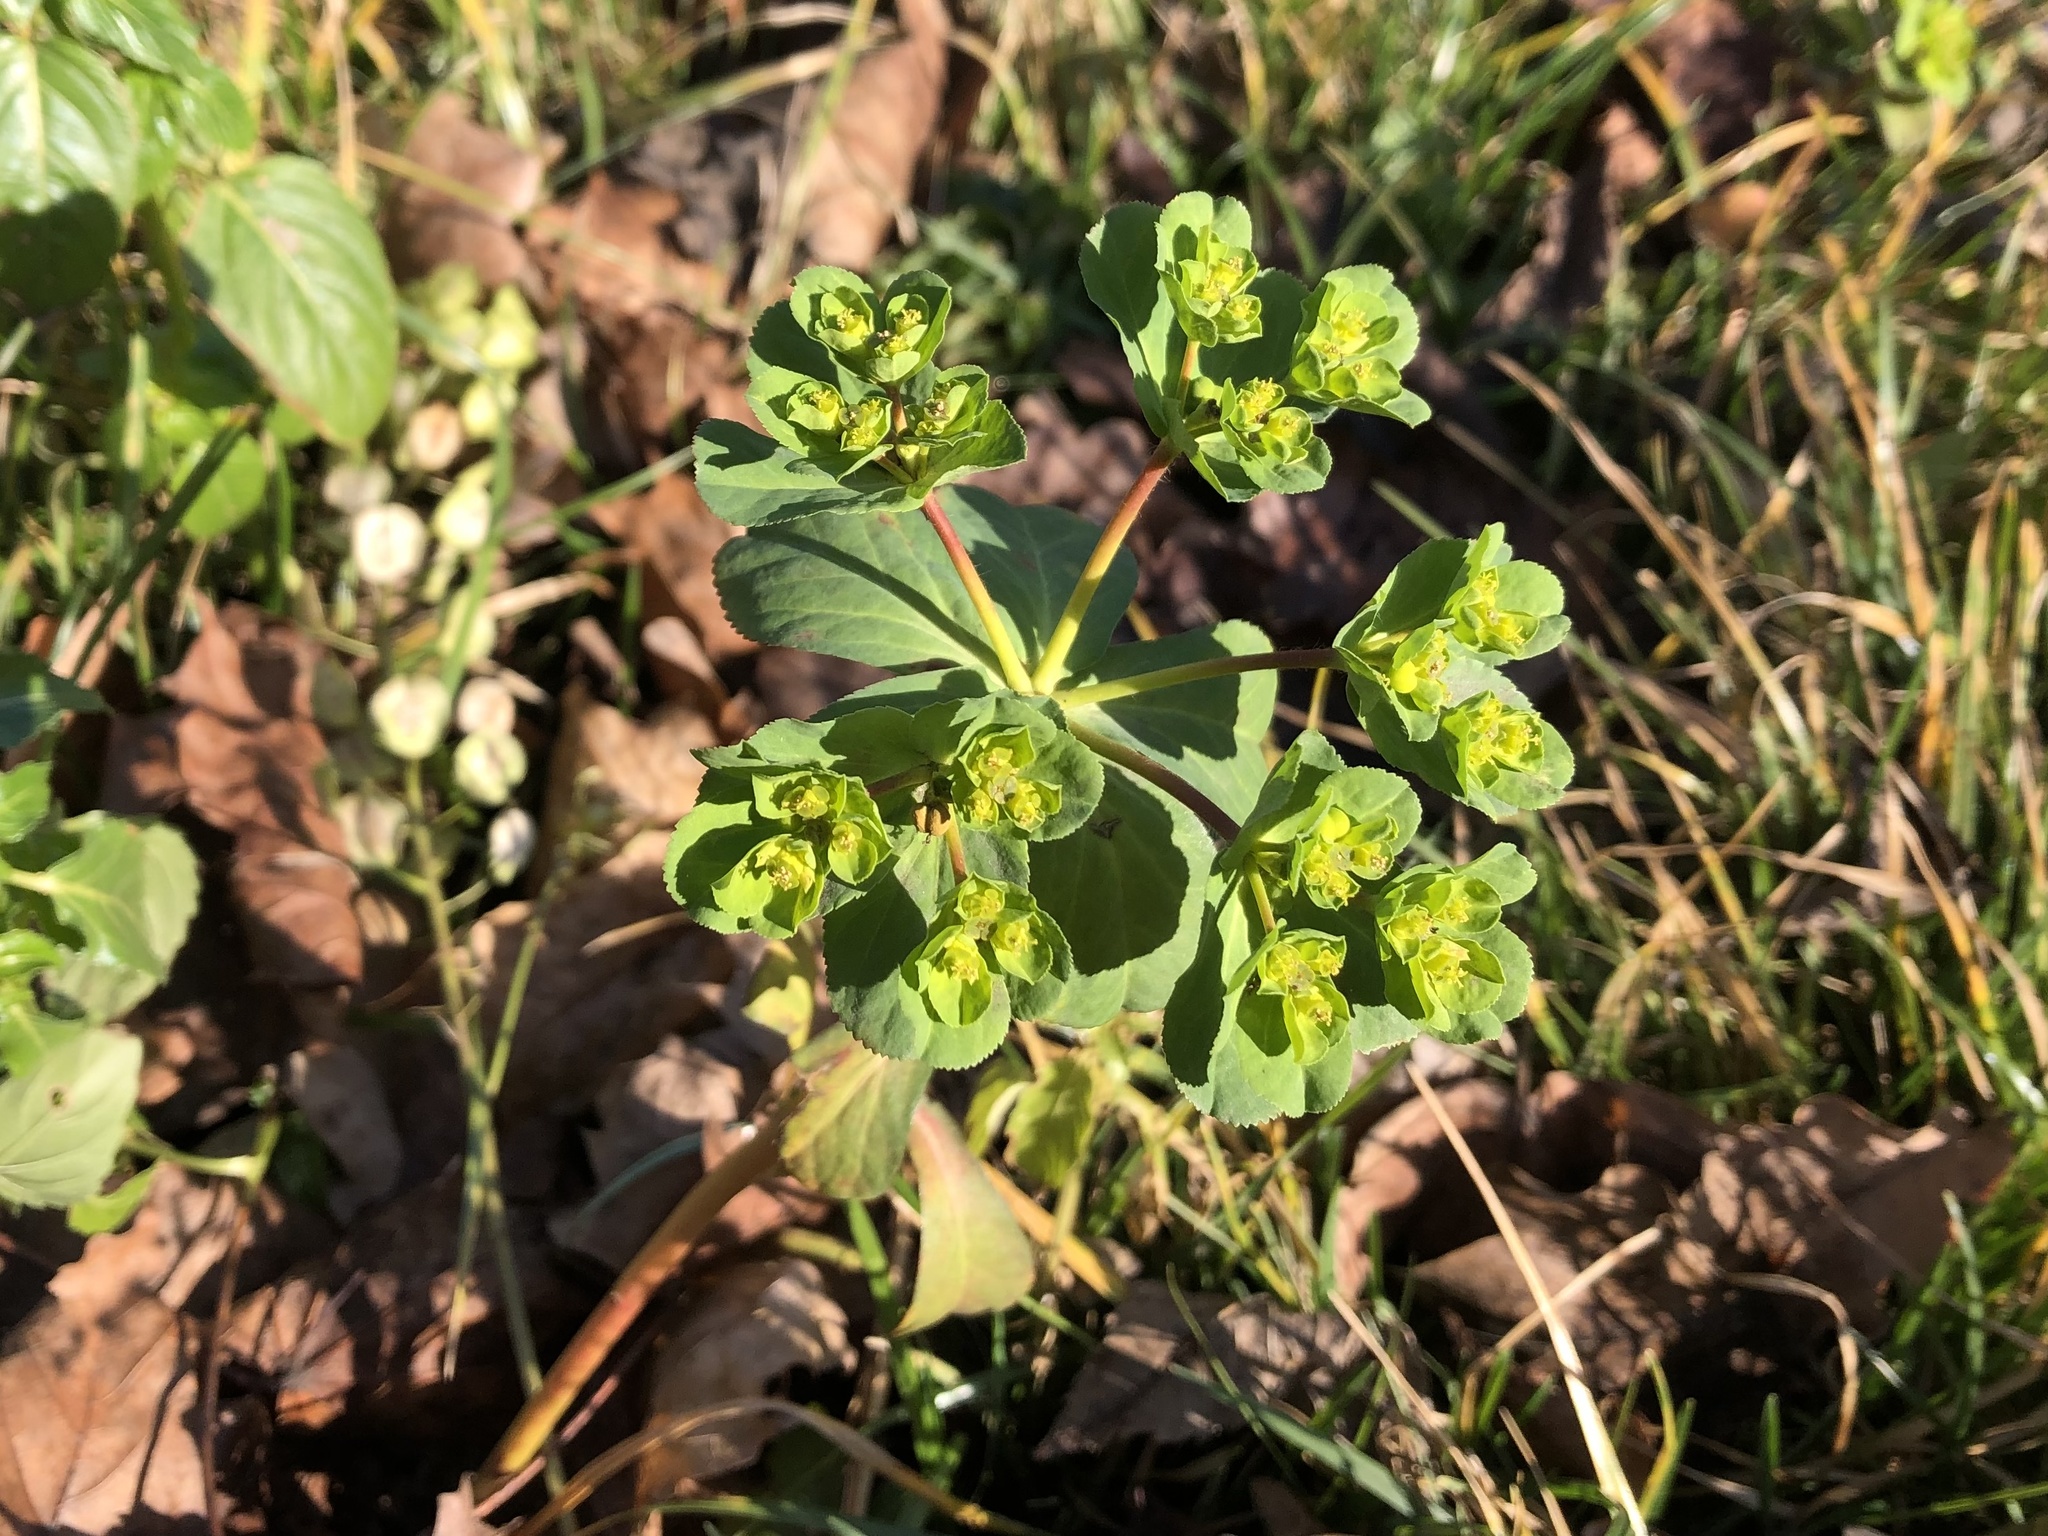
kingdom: Plantae
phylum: Tracheophyta
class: Magnoliopsida
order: Malpighiales
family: Euphorbiaceae
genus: Euphorbia
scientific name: Euphorbia helioscopia
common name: Sun spurge
